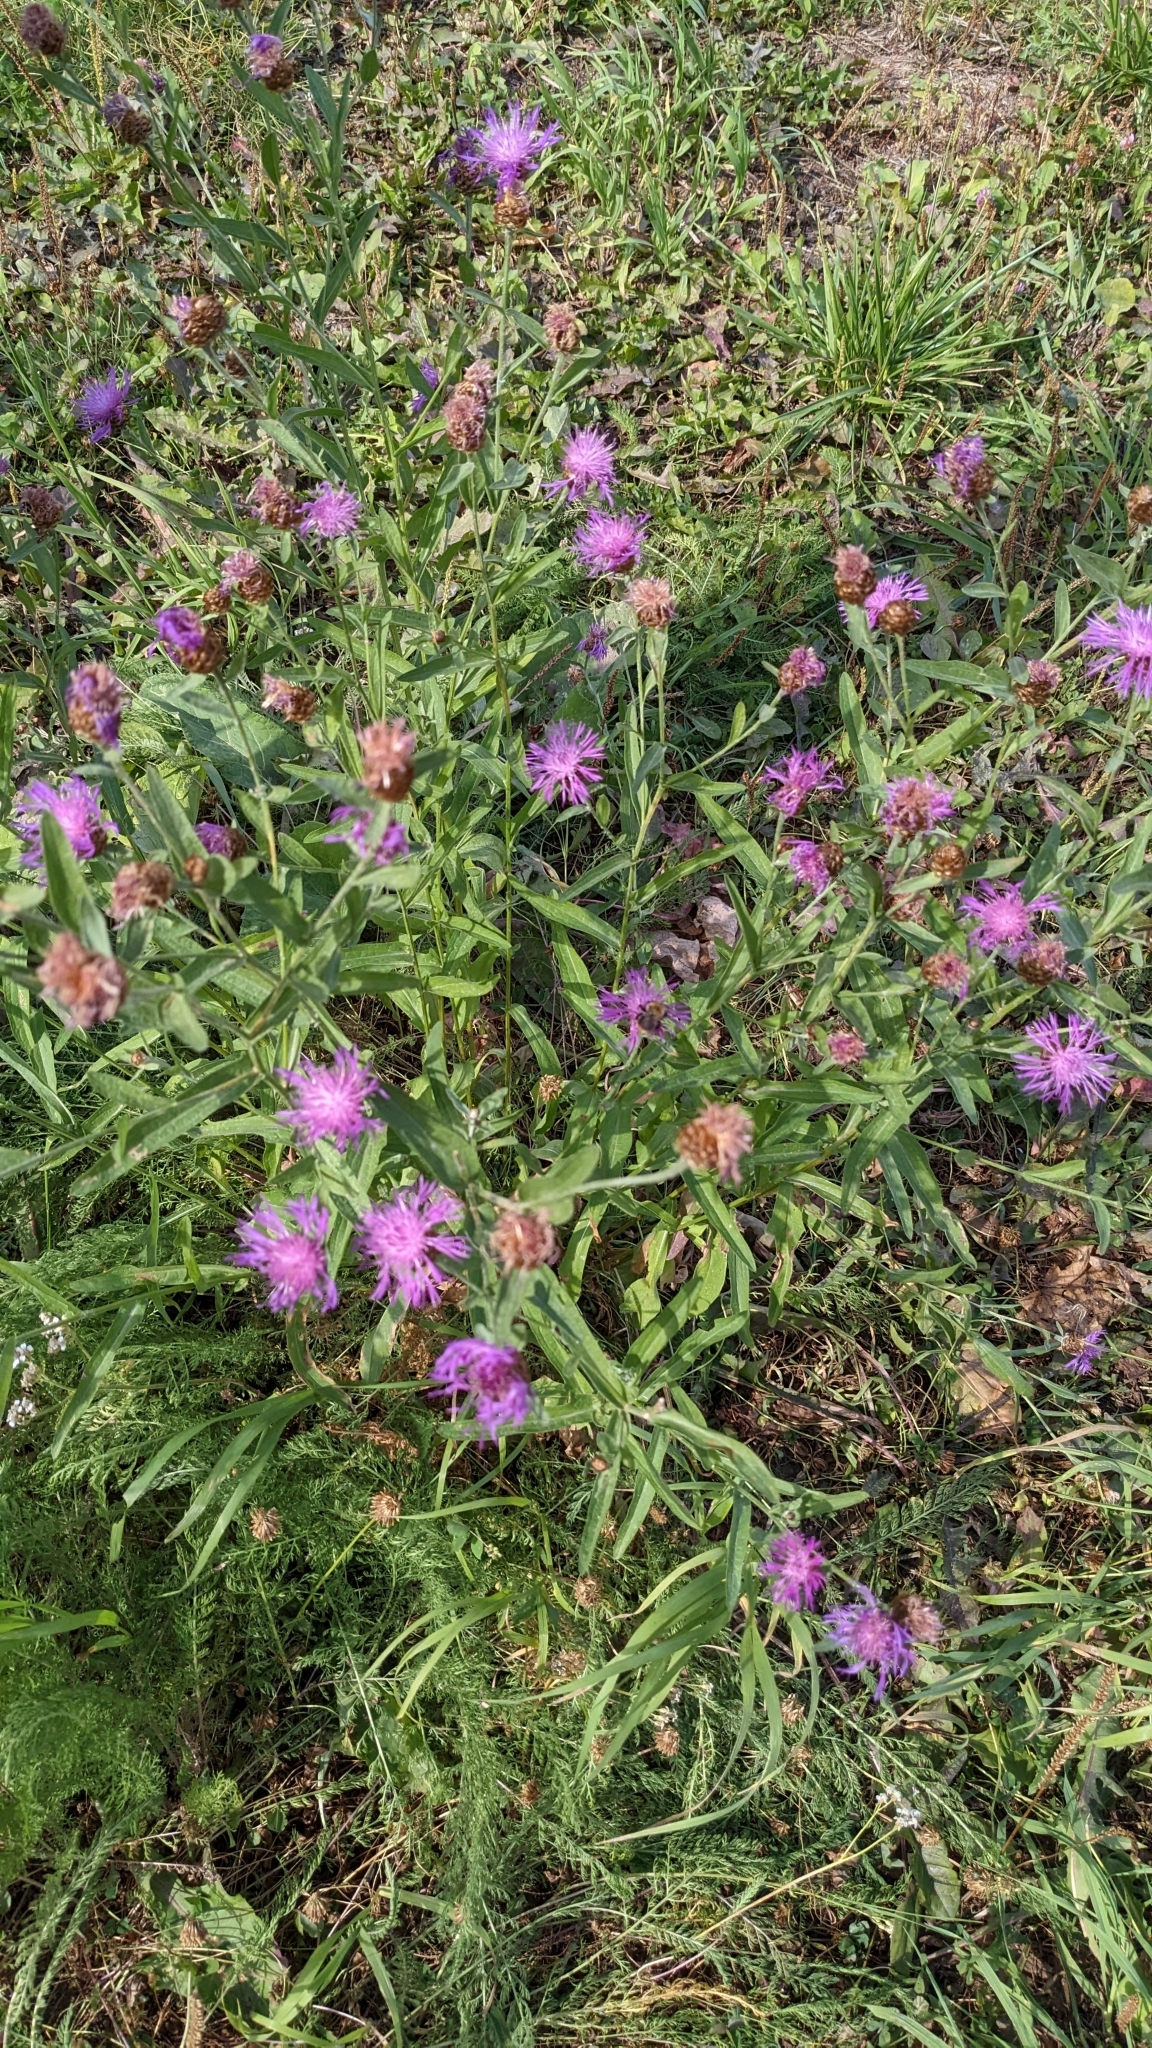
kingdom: Plantae
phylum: Tracheophyta
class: Magnoliopsida
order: Asterales
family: Asteraceae
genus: Centaurea
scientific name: Centaurea jacea
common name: Brown knapweed
